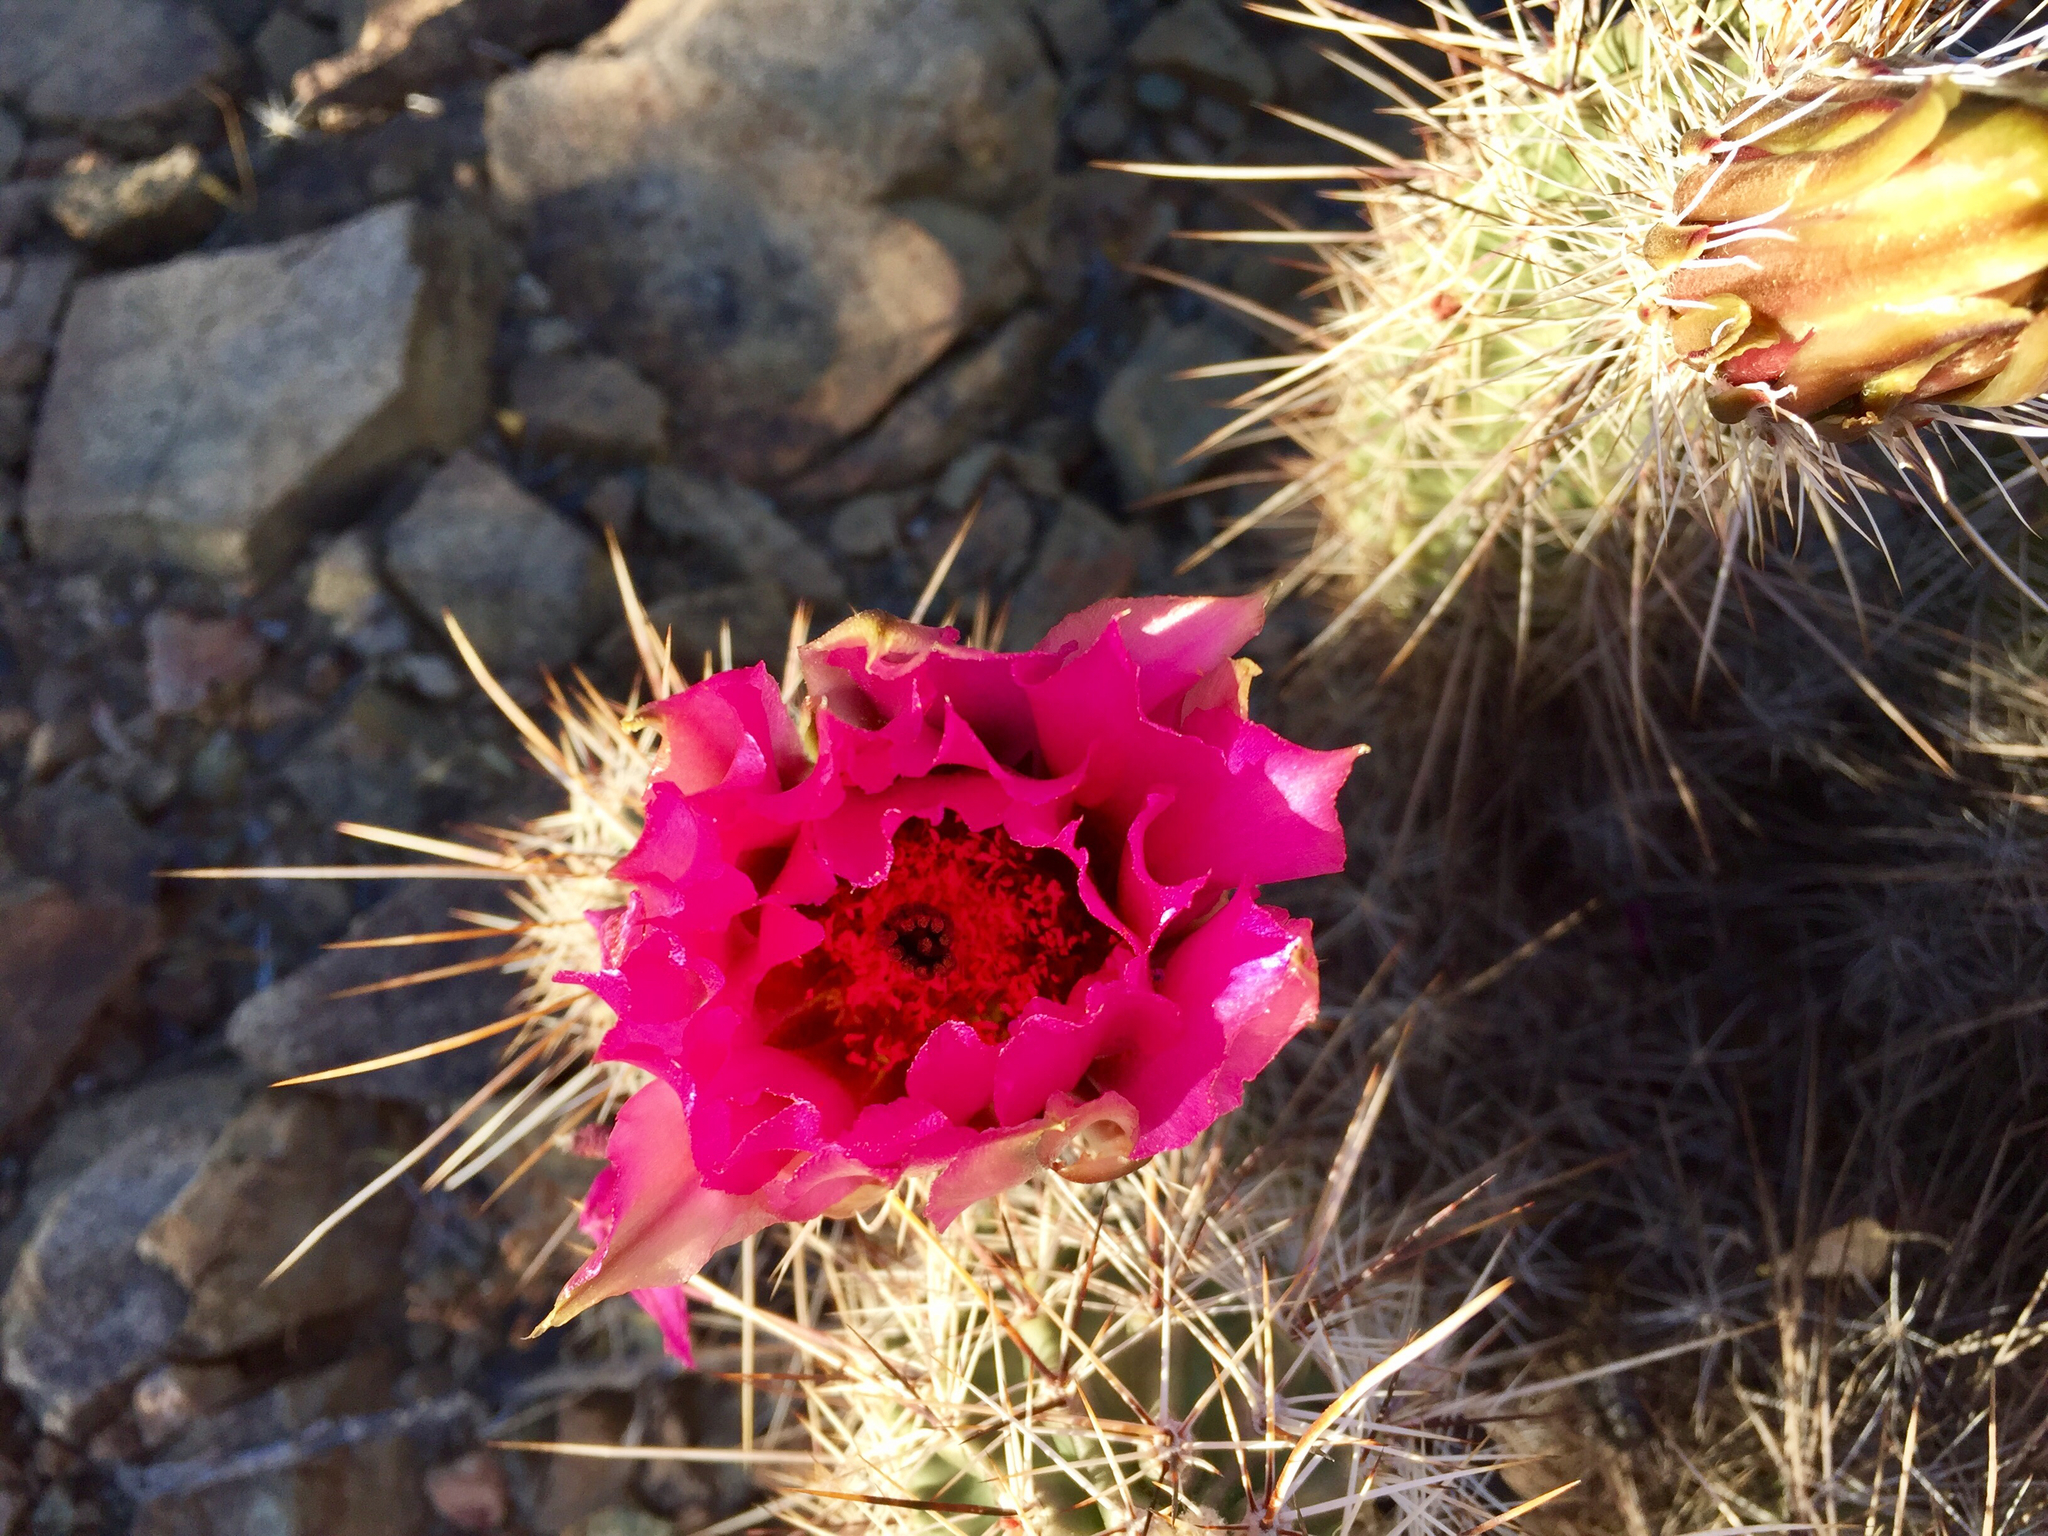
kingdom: Plantae
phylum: Tracheophyta
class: Magnoliopsida
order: Caryophyllales
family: Cactaceae
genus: Echinocereus
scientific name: Echinocereus fasciculatus
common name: Bundle hedgehog
